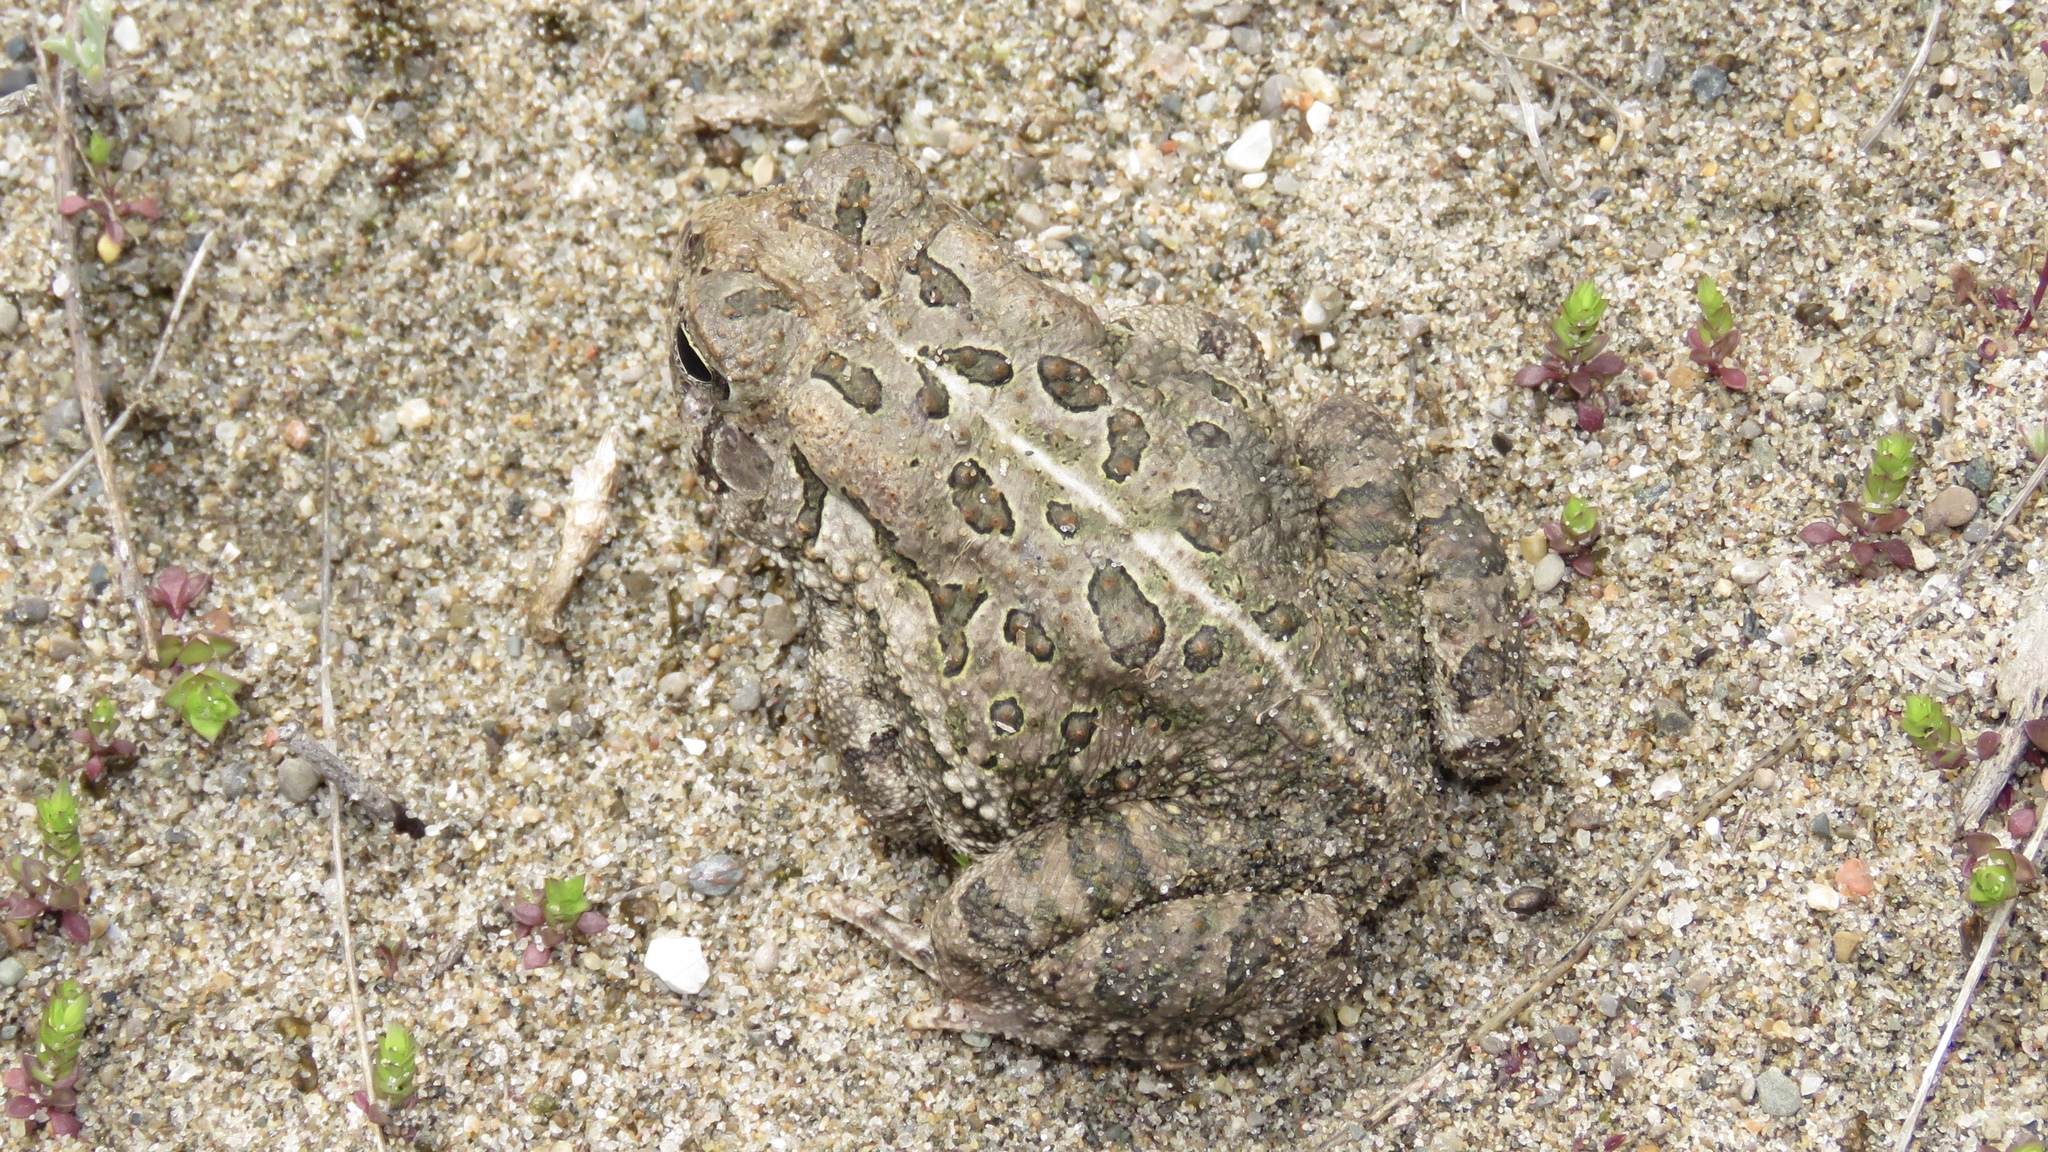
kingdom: Animalia
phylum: Chordata
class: Amphibia
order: Anura
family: Bufonidae
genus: Anaxyrus
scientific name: Anaxyrus fowleri
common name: Fowler's toad
